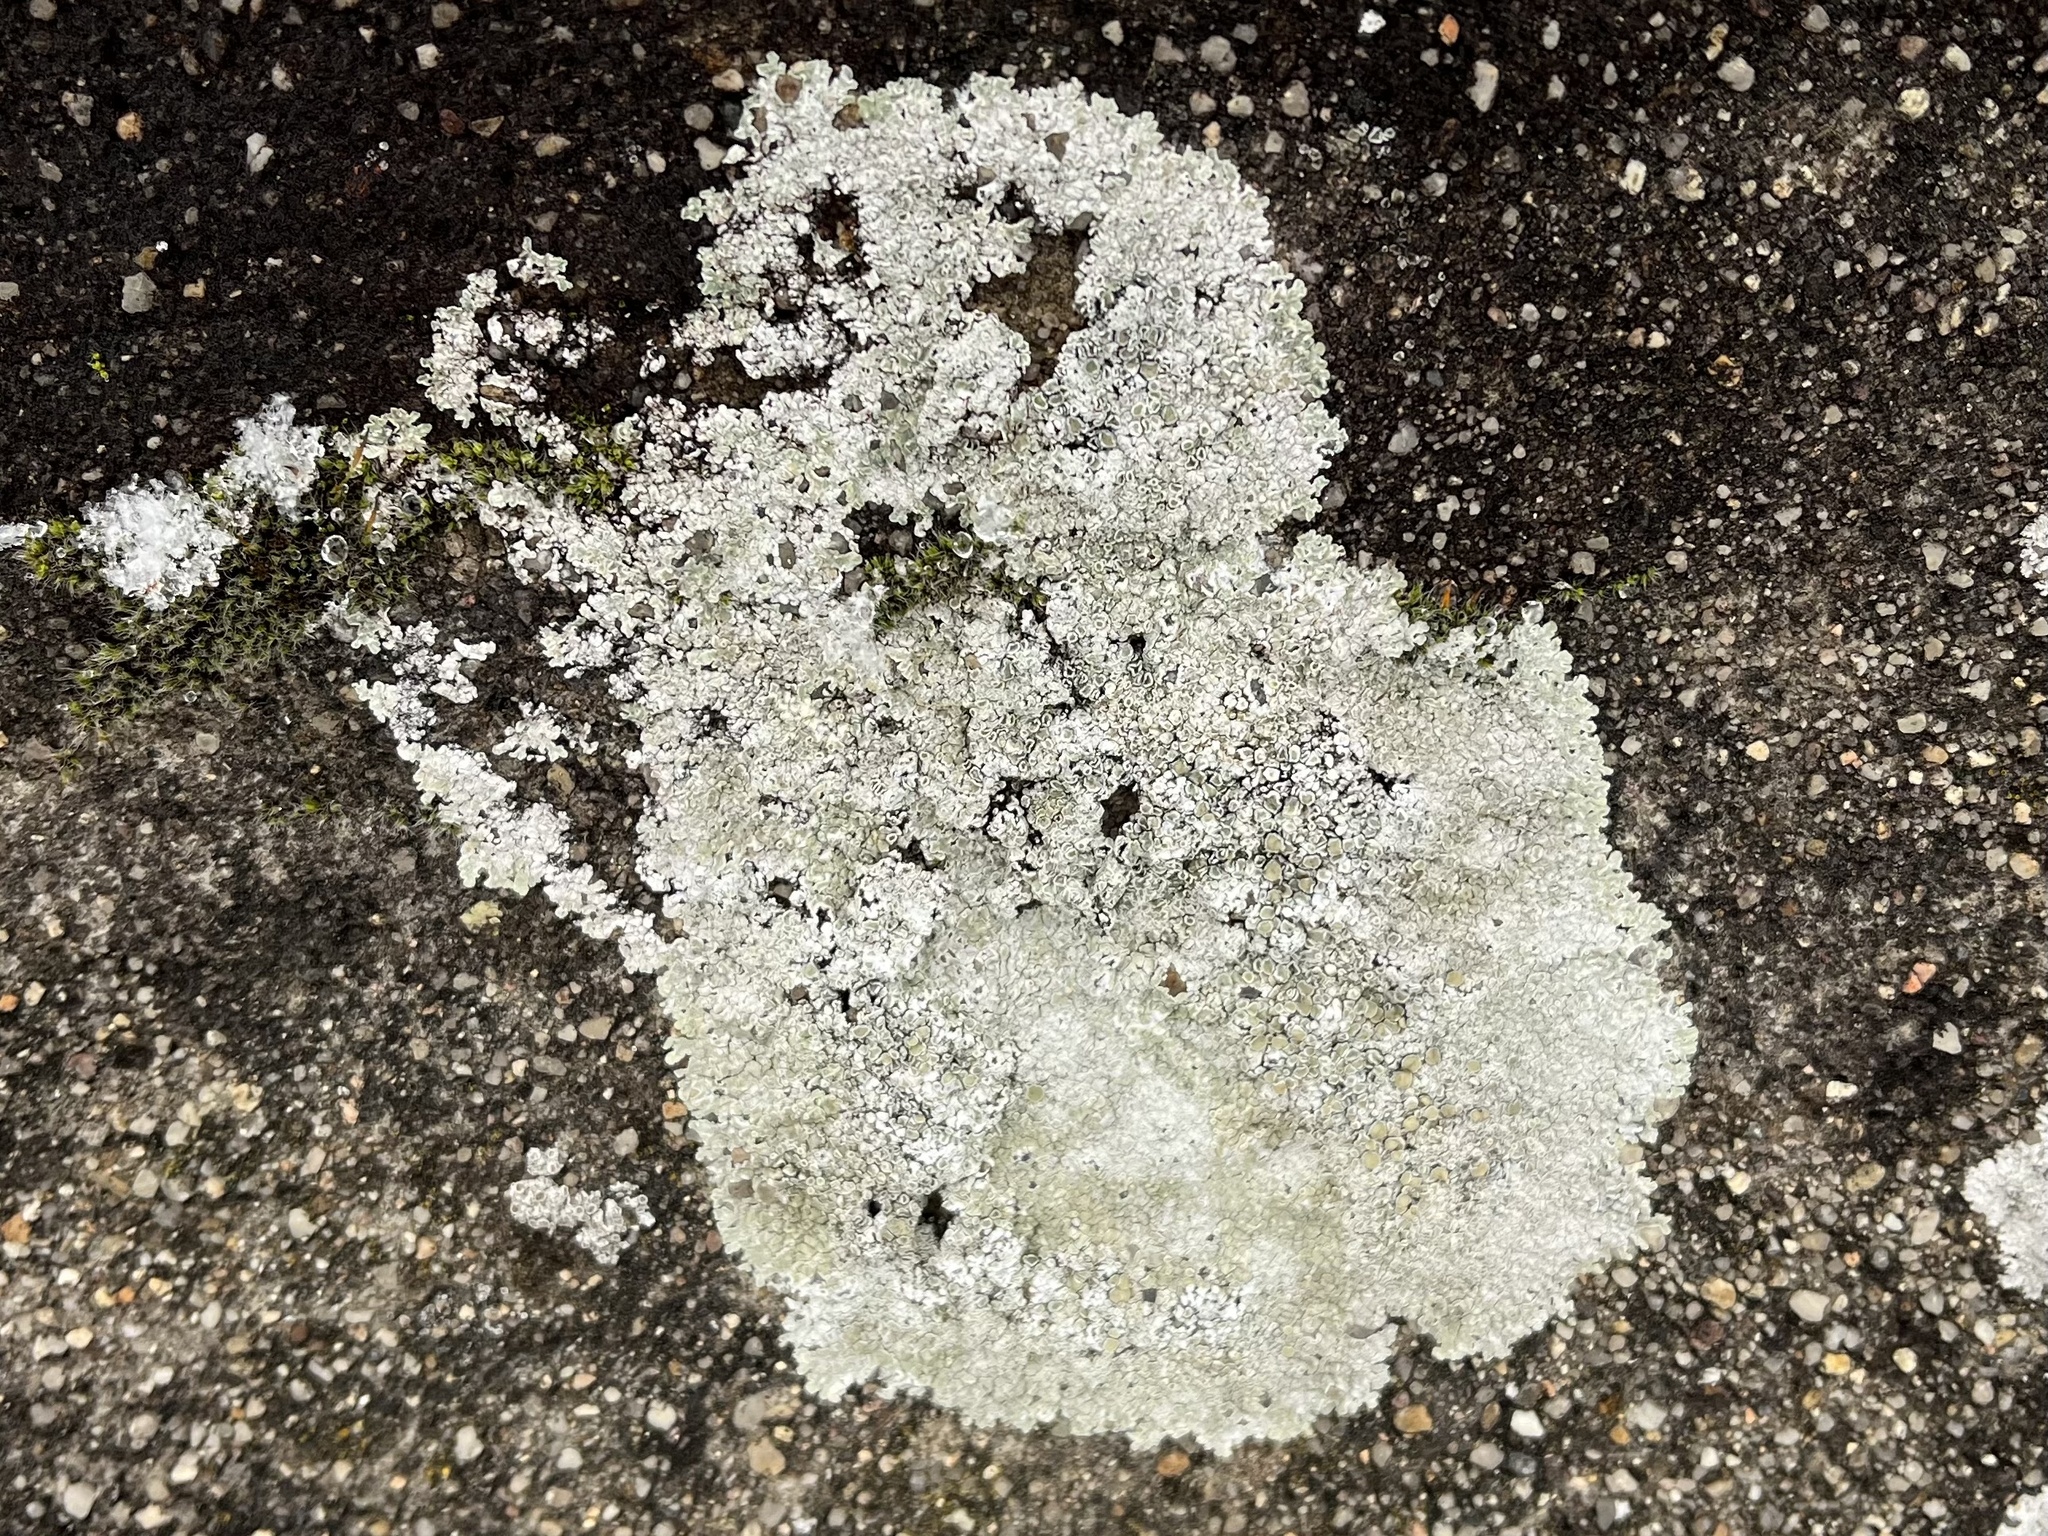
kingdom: Fungi
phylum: Ascomycota
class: Lecanoromycetes
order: Lecanorales
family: Lecanoraceae
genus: Protoparmeliopsis
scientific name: Protoparmeliopsis muralis
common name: Stonewall rim lichen
